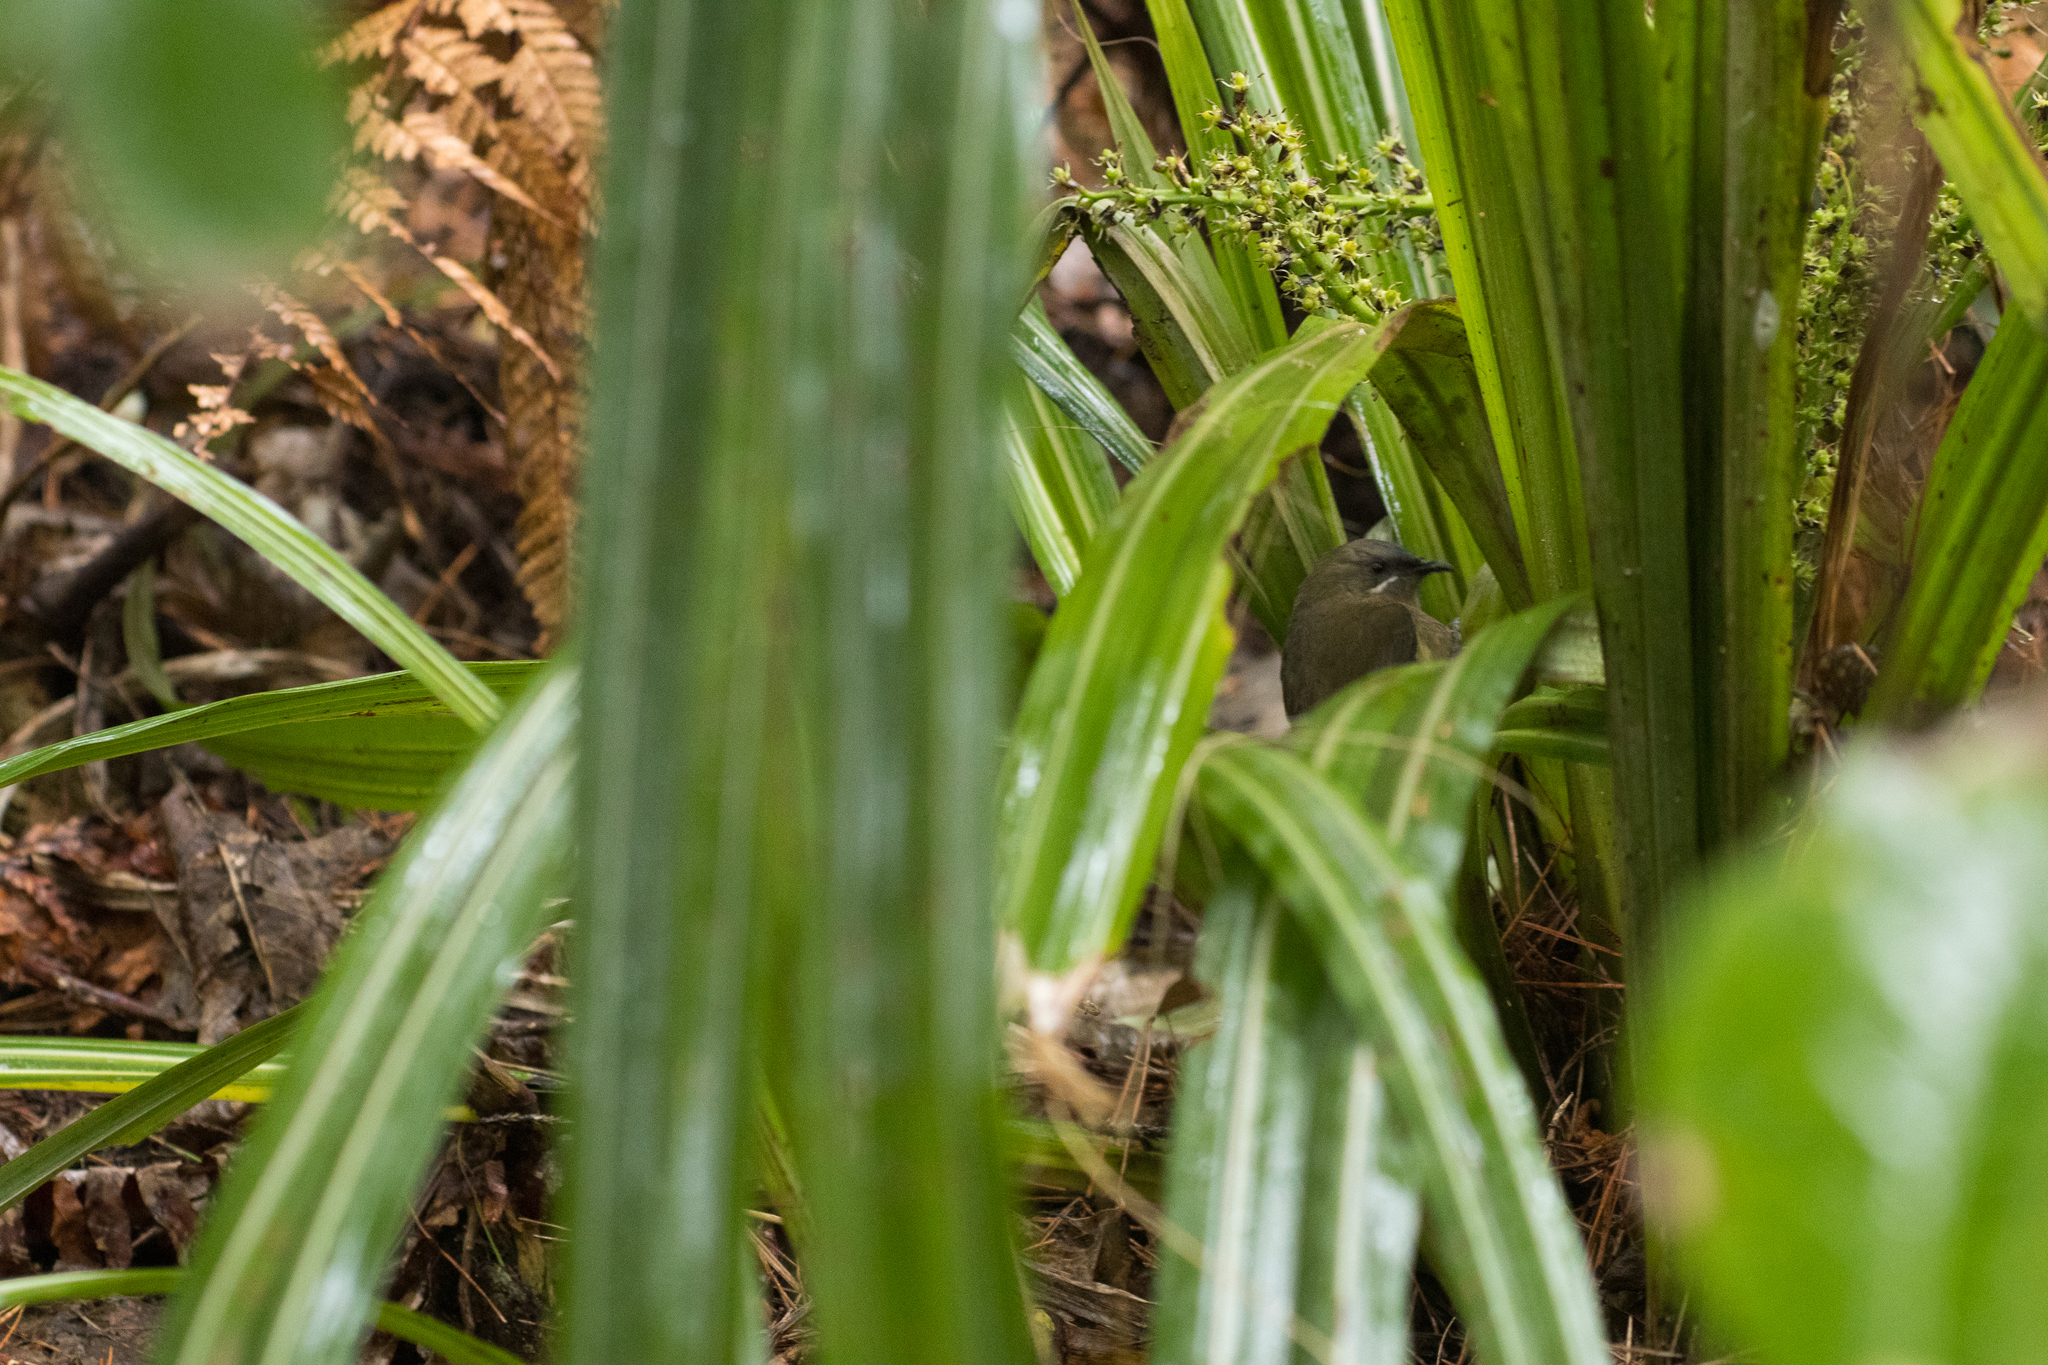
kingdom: Animalia
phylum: Chordata
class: Aves
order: Passeriformes
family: Meliphagidae
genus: Anthornis
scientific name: Anthornis melanura
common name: New zealand bellbird
